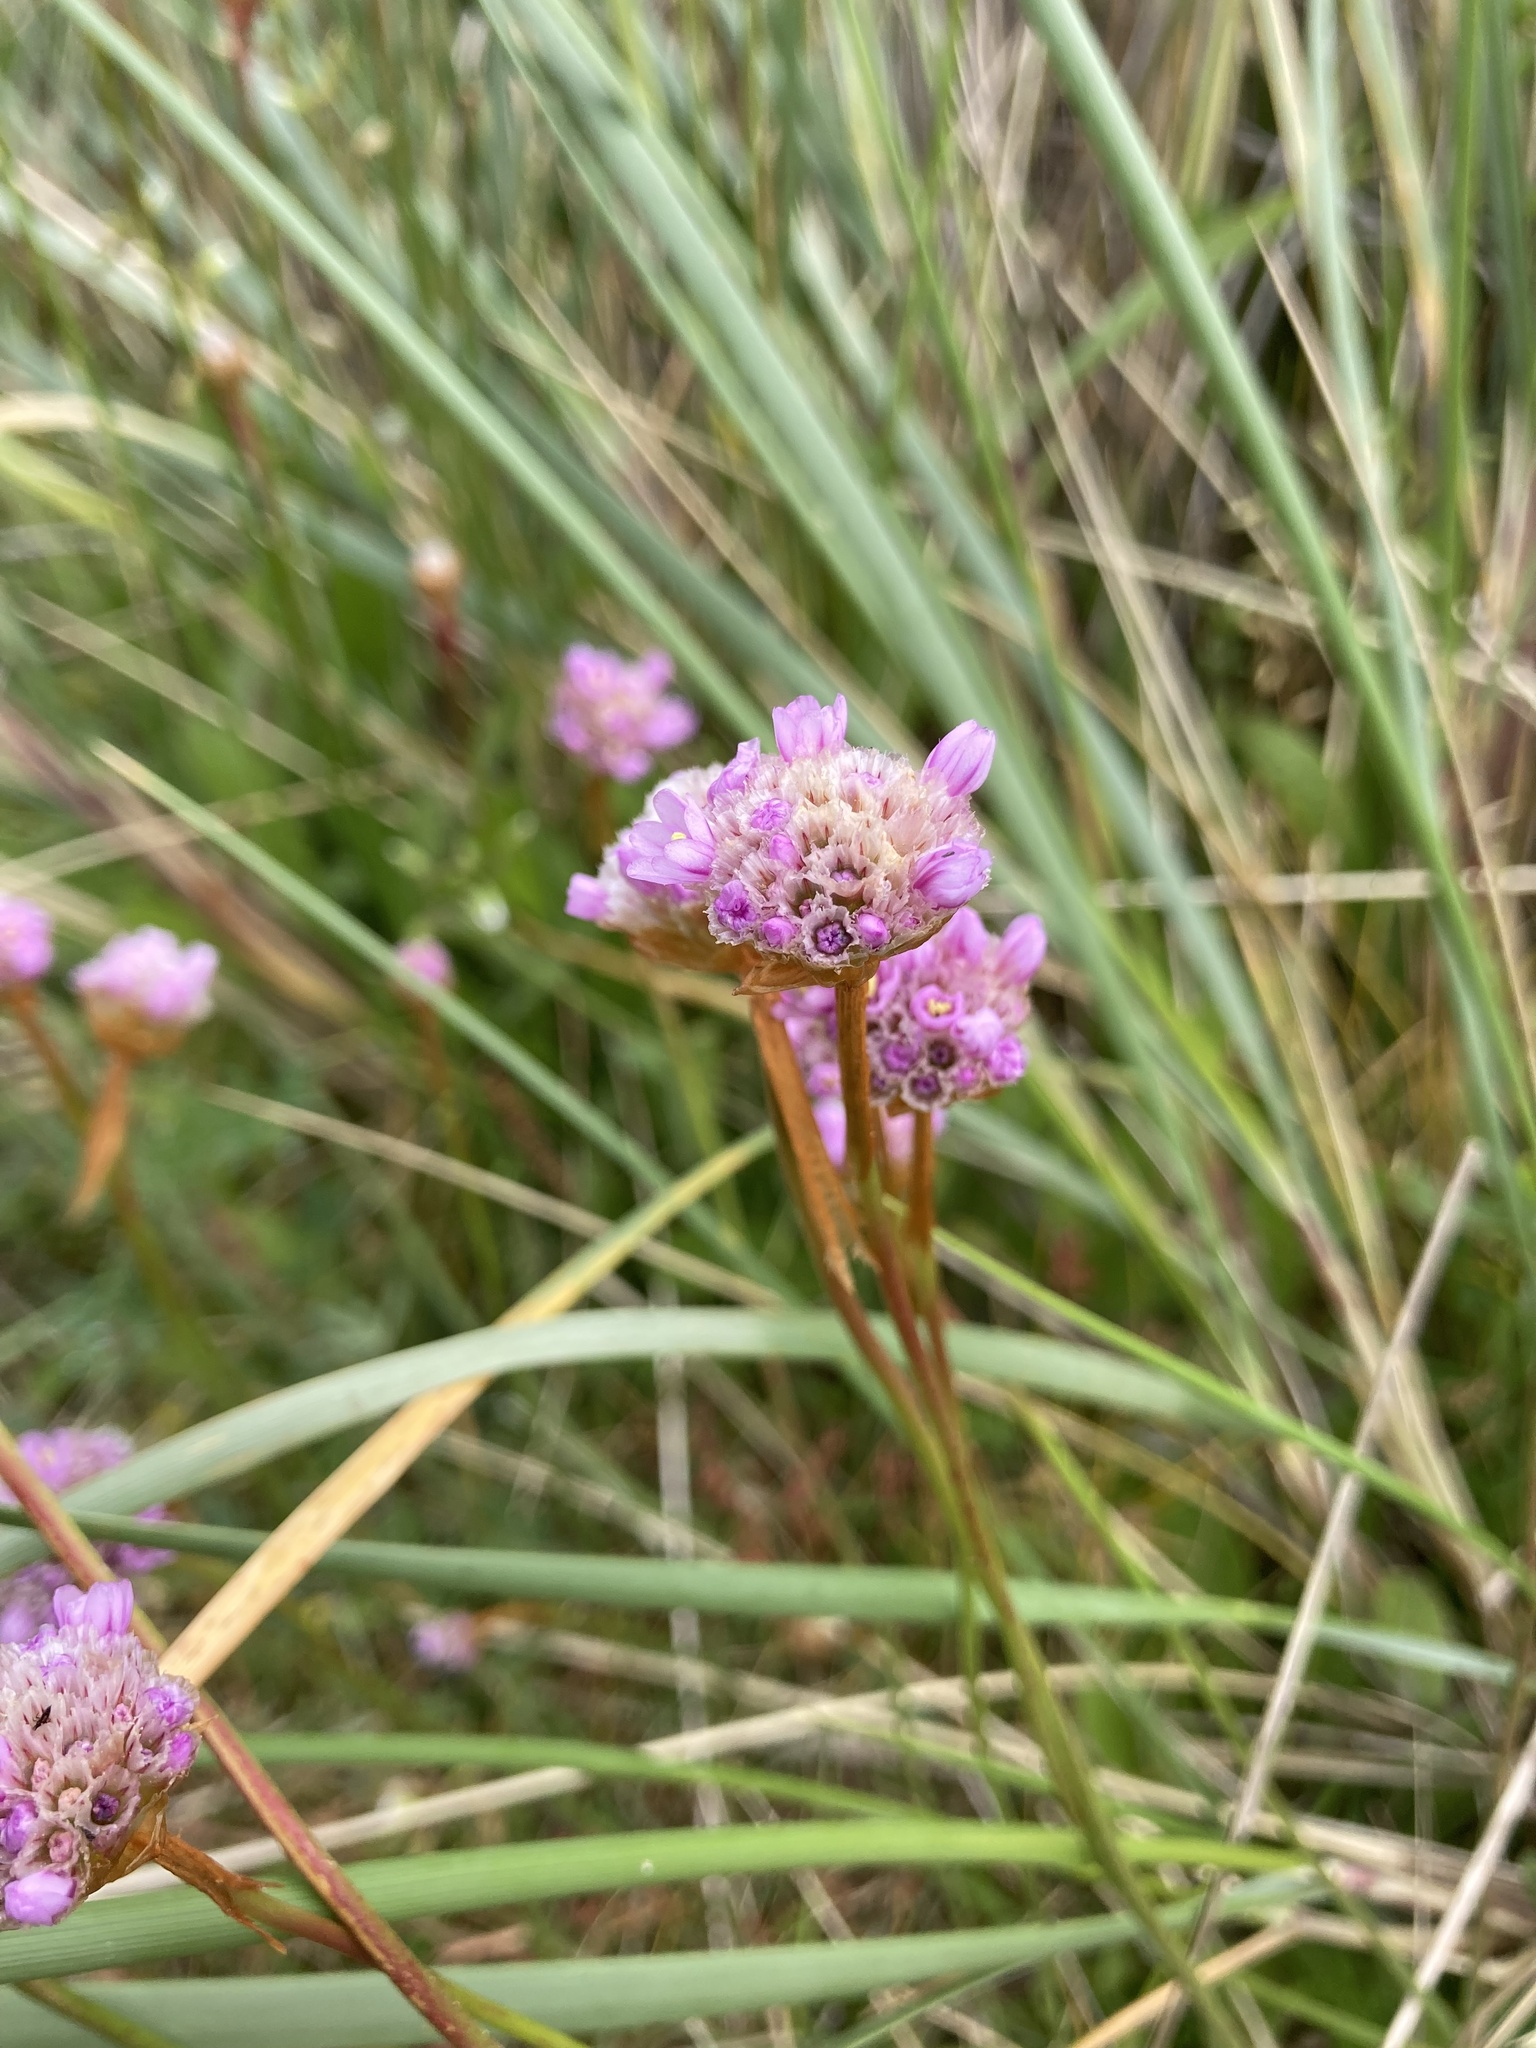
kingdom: Plantae
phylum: Tracheophyta
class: Magnoliopsida
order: Caryophyllales
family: Plumbaginaceae
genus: Armeria
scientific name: Armeria maritima
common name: Thrift
